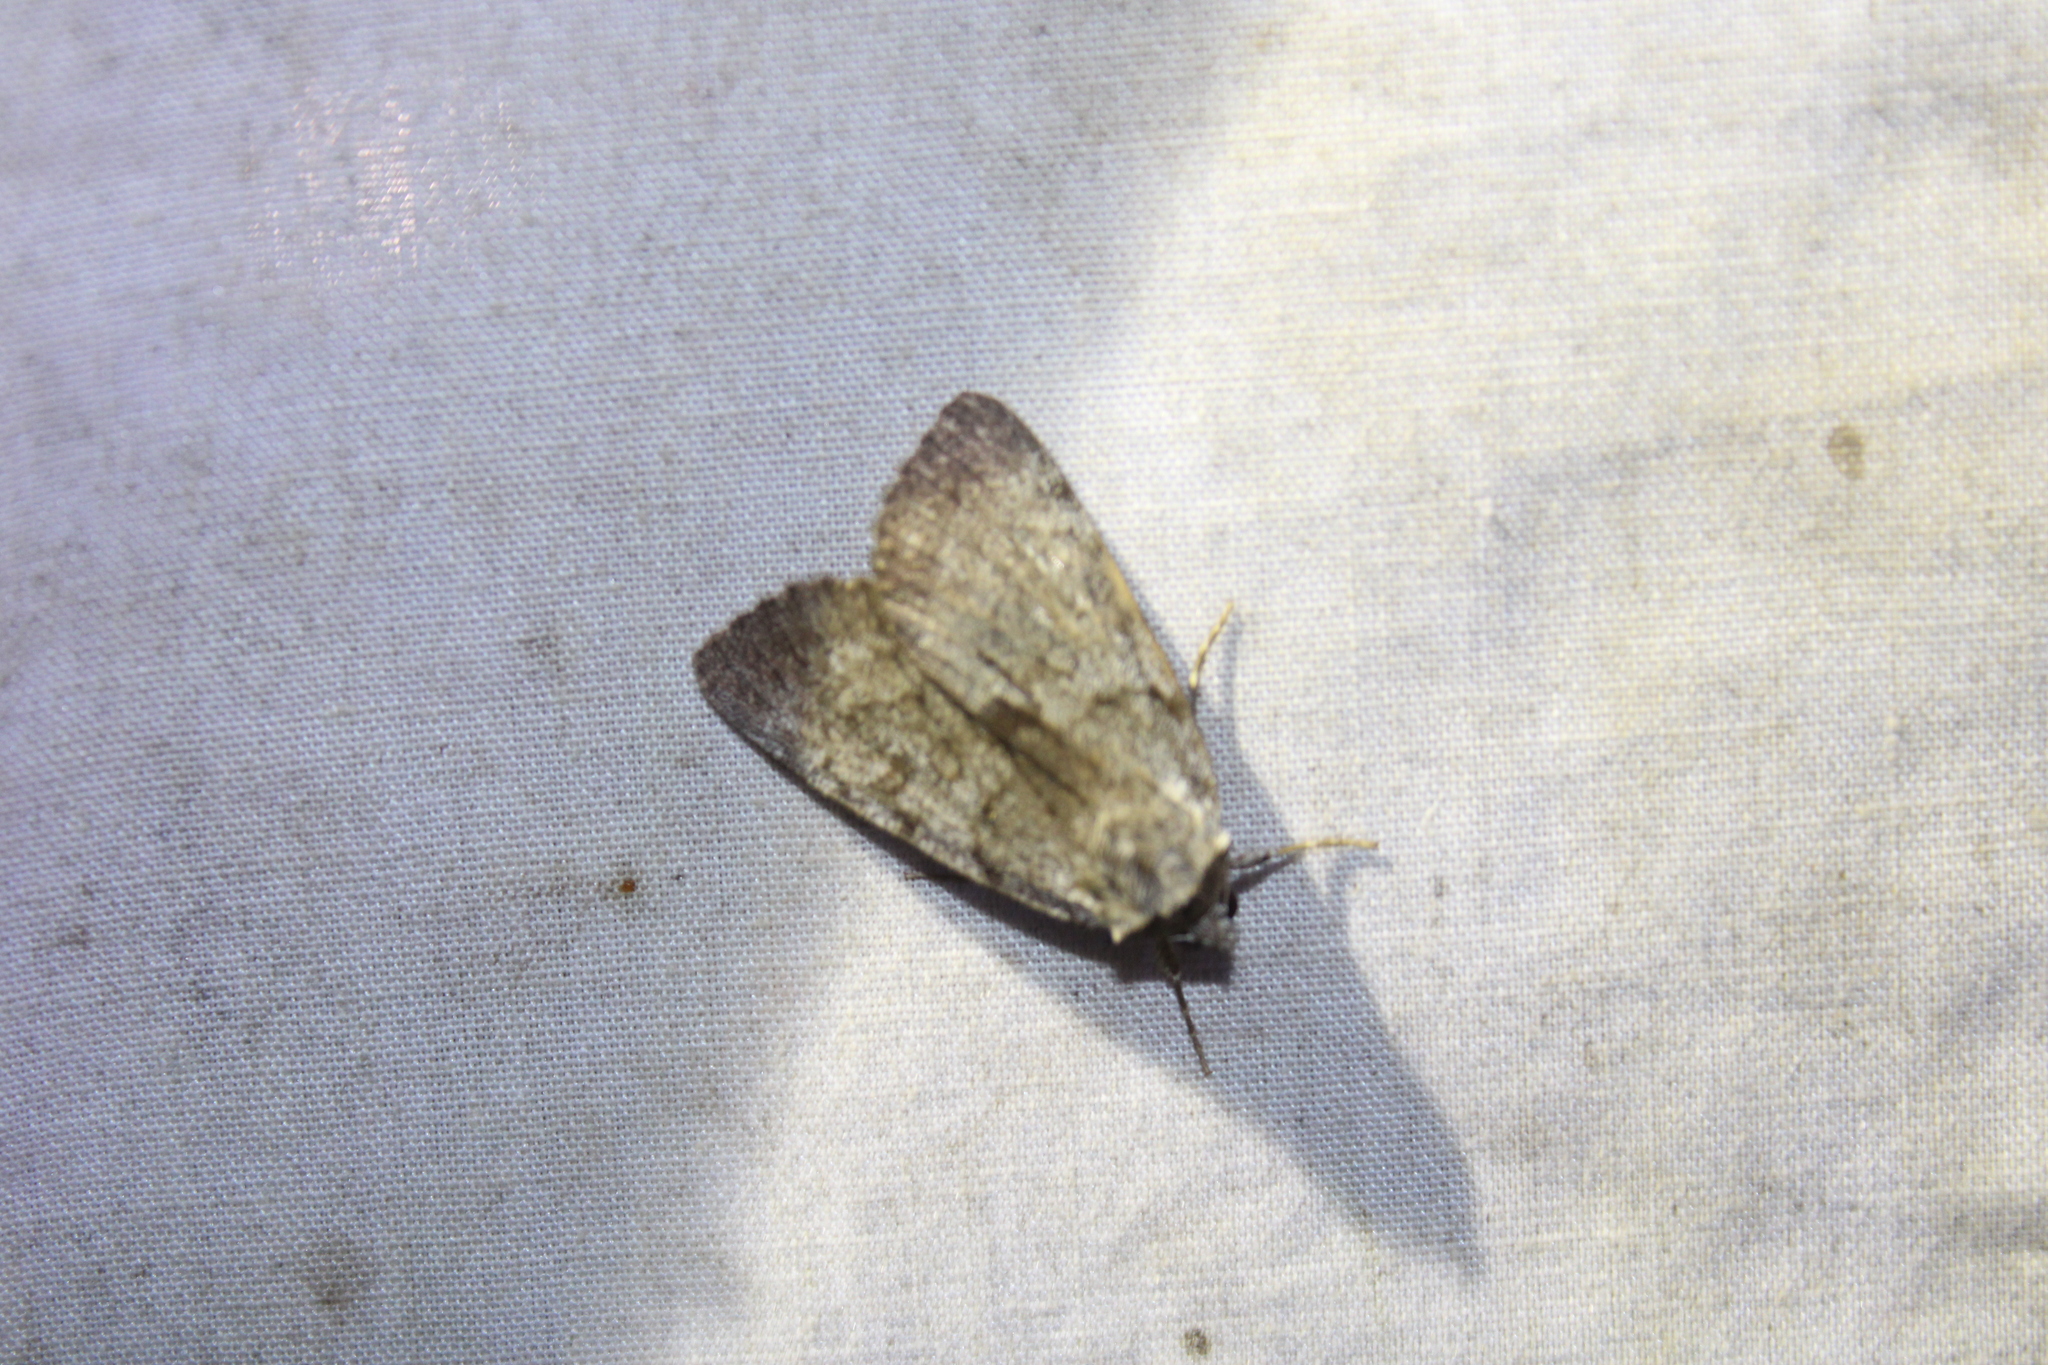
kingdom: Animalia
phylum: Arthropoda
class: Insecta
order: Lepidoptera
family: Erebidae
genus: Catocala
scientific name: Catocala sordida
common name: Sordid underwing
